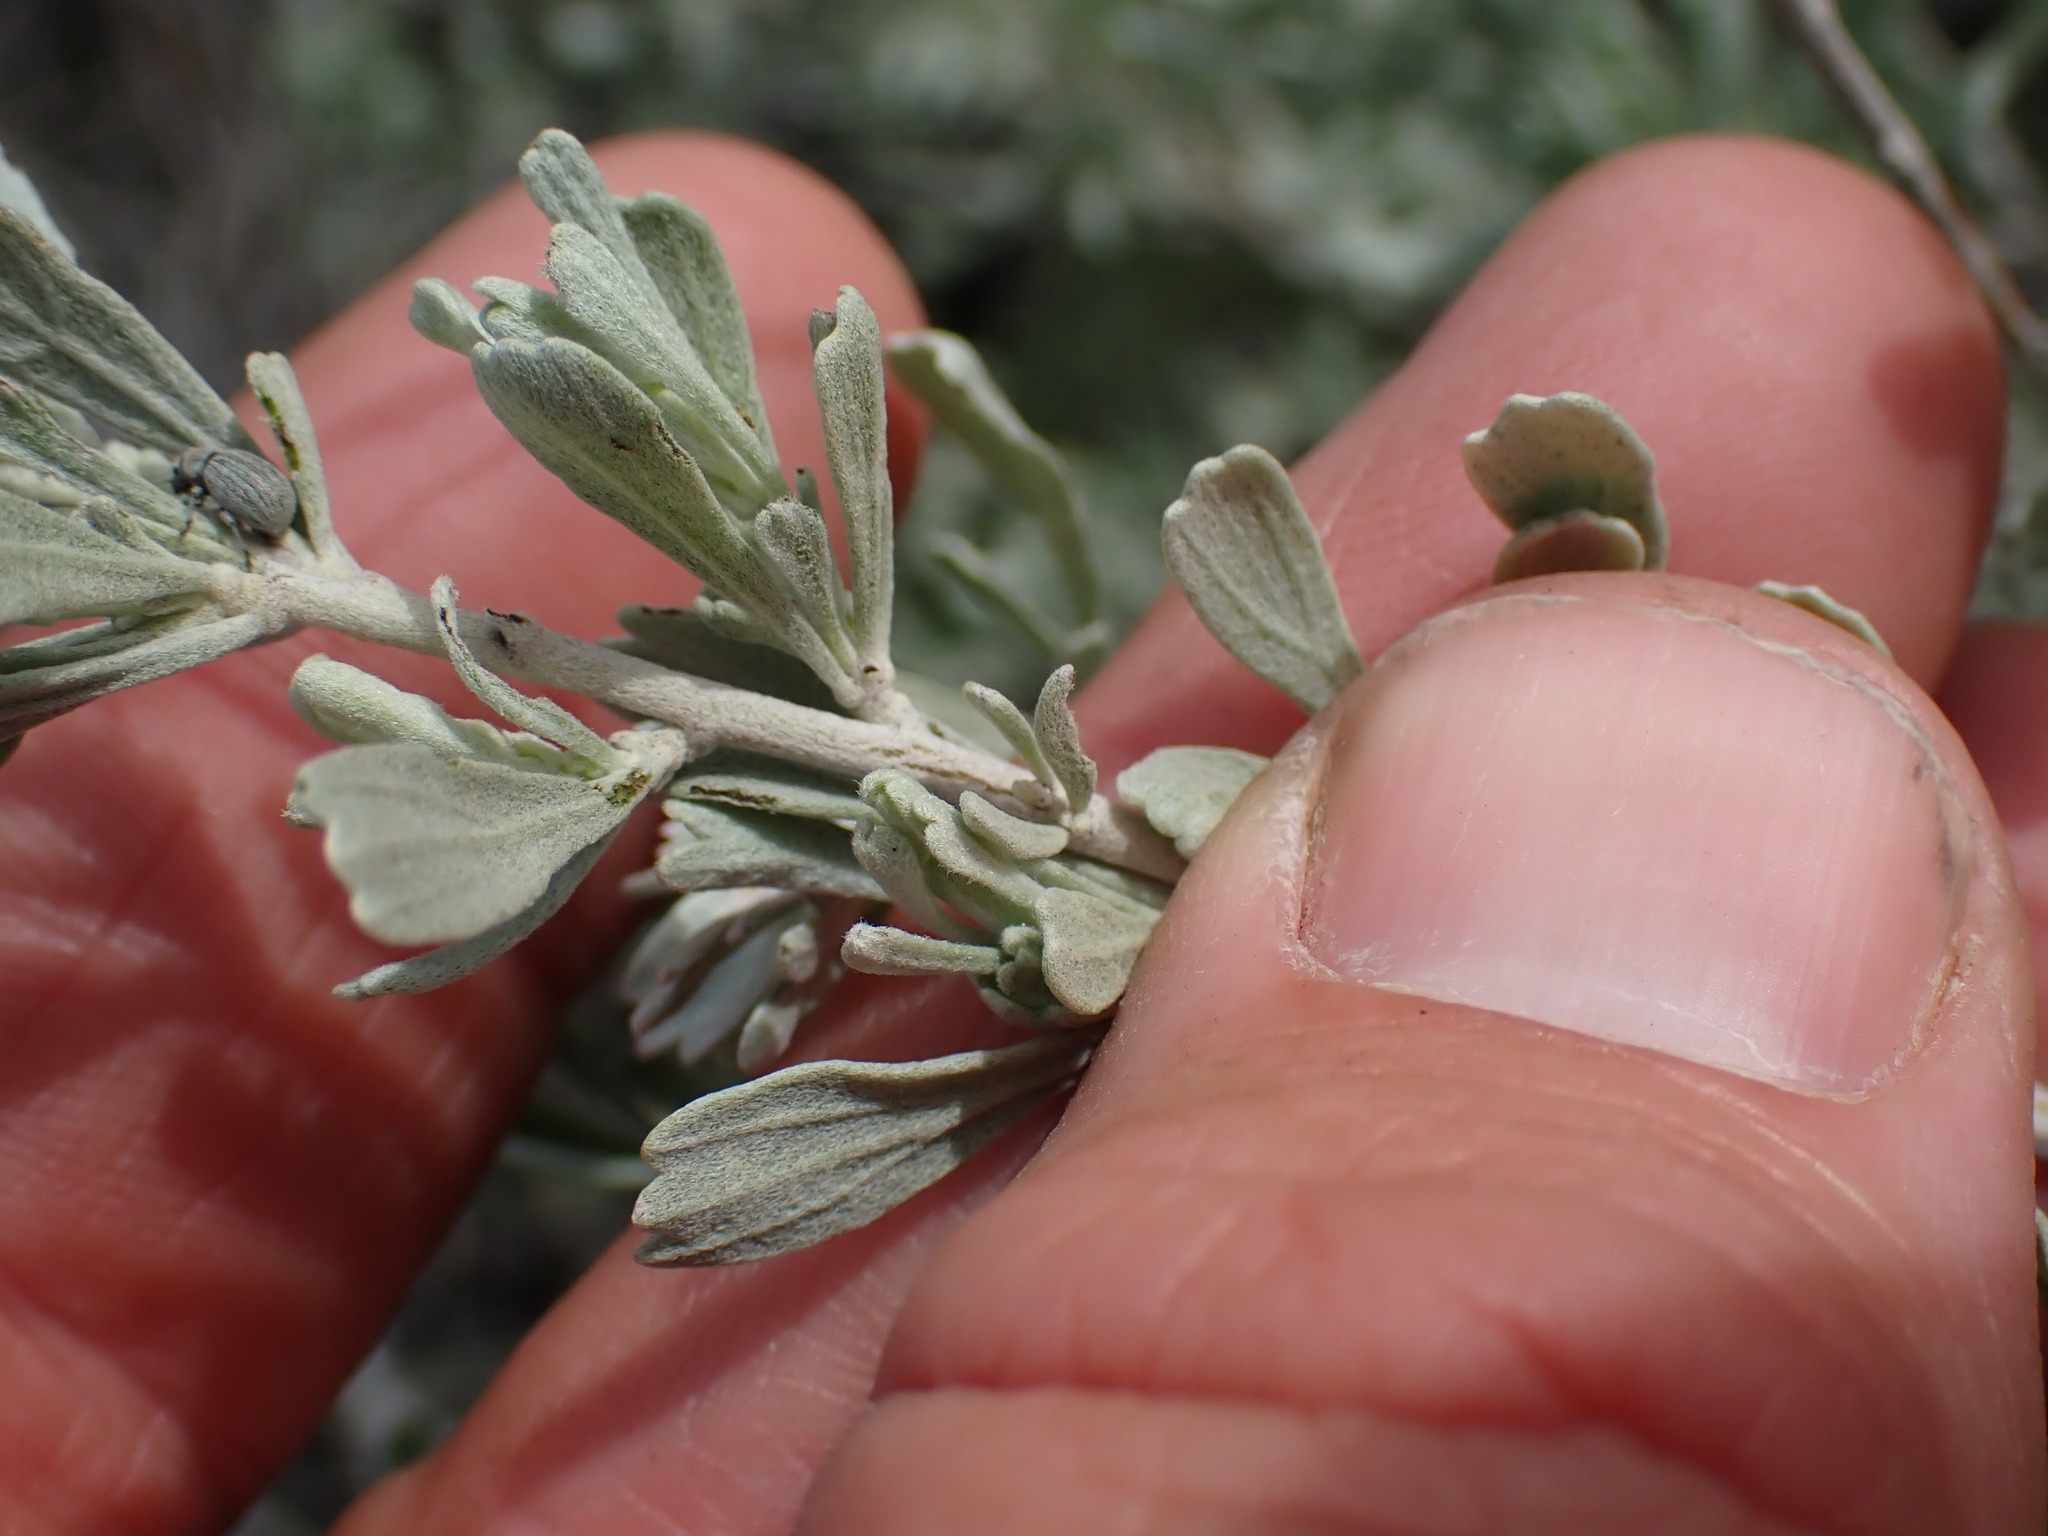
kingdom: Plantae
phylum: Tracheophyta
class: Magnoliopsida
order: Asterales
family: Asteraceae
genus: Artemisia
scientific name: Artemisia tridentata
